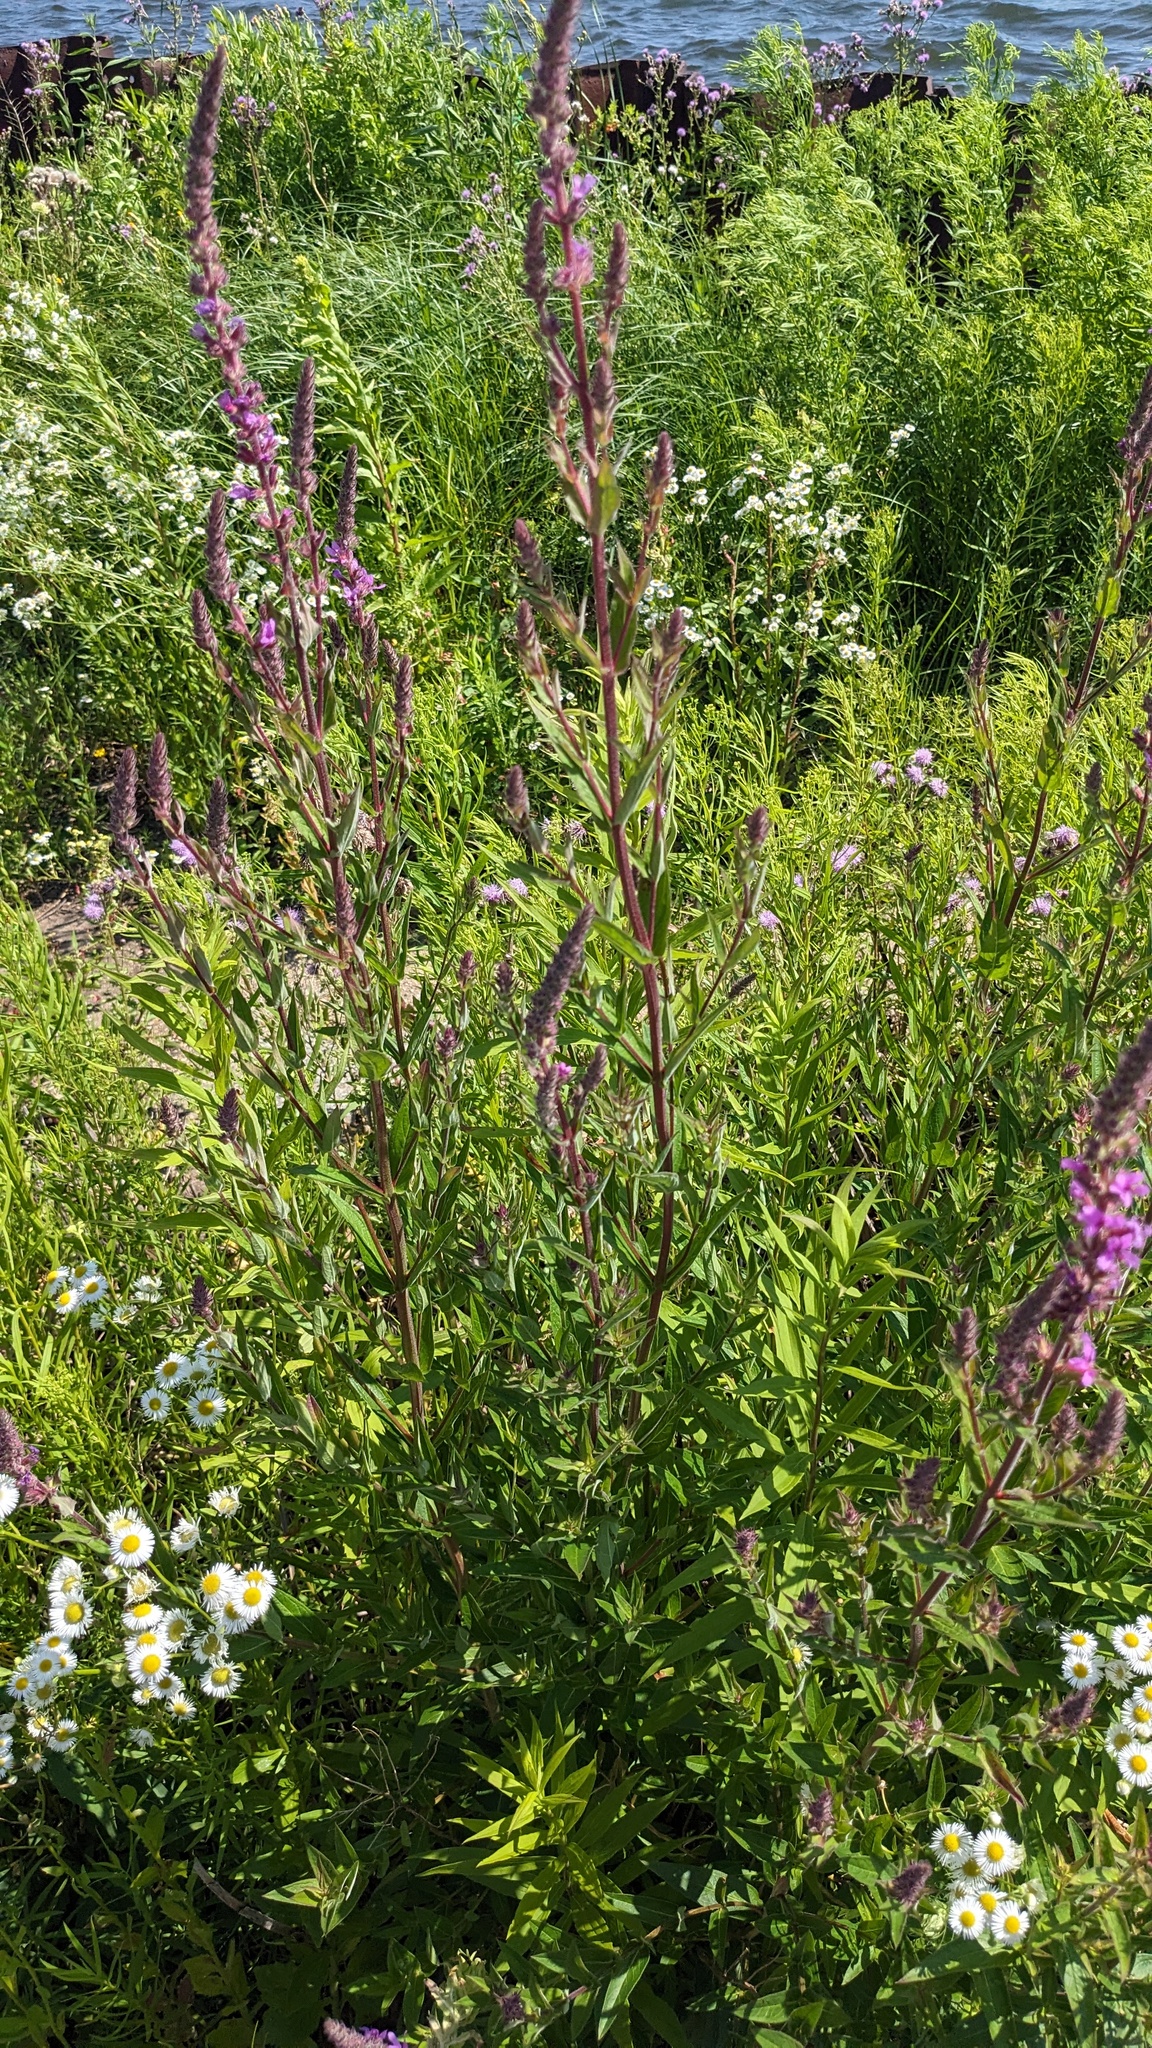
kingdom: Plantae
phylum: Tracheophyta
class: Magnoliopsida
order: Myrtales
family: Lythraceae
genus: Lythrum
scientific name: Lythrum salicaria
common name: Purple loosestrife
